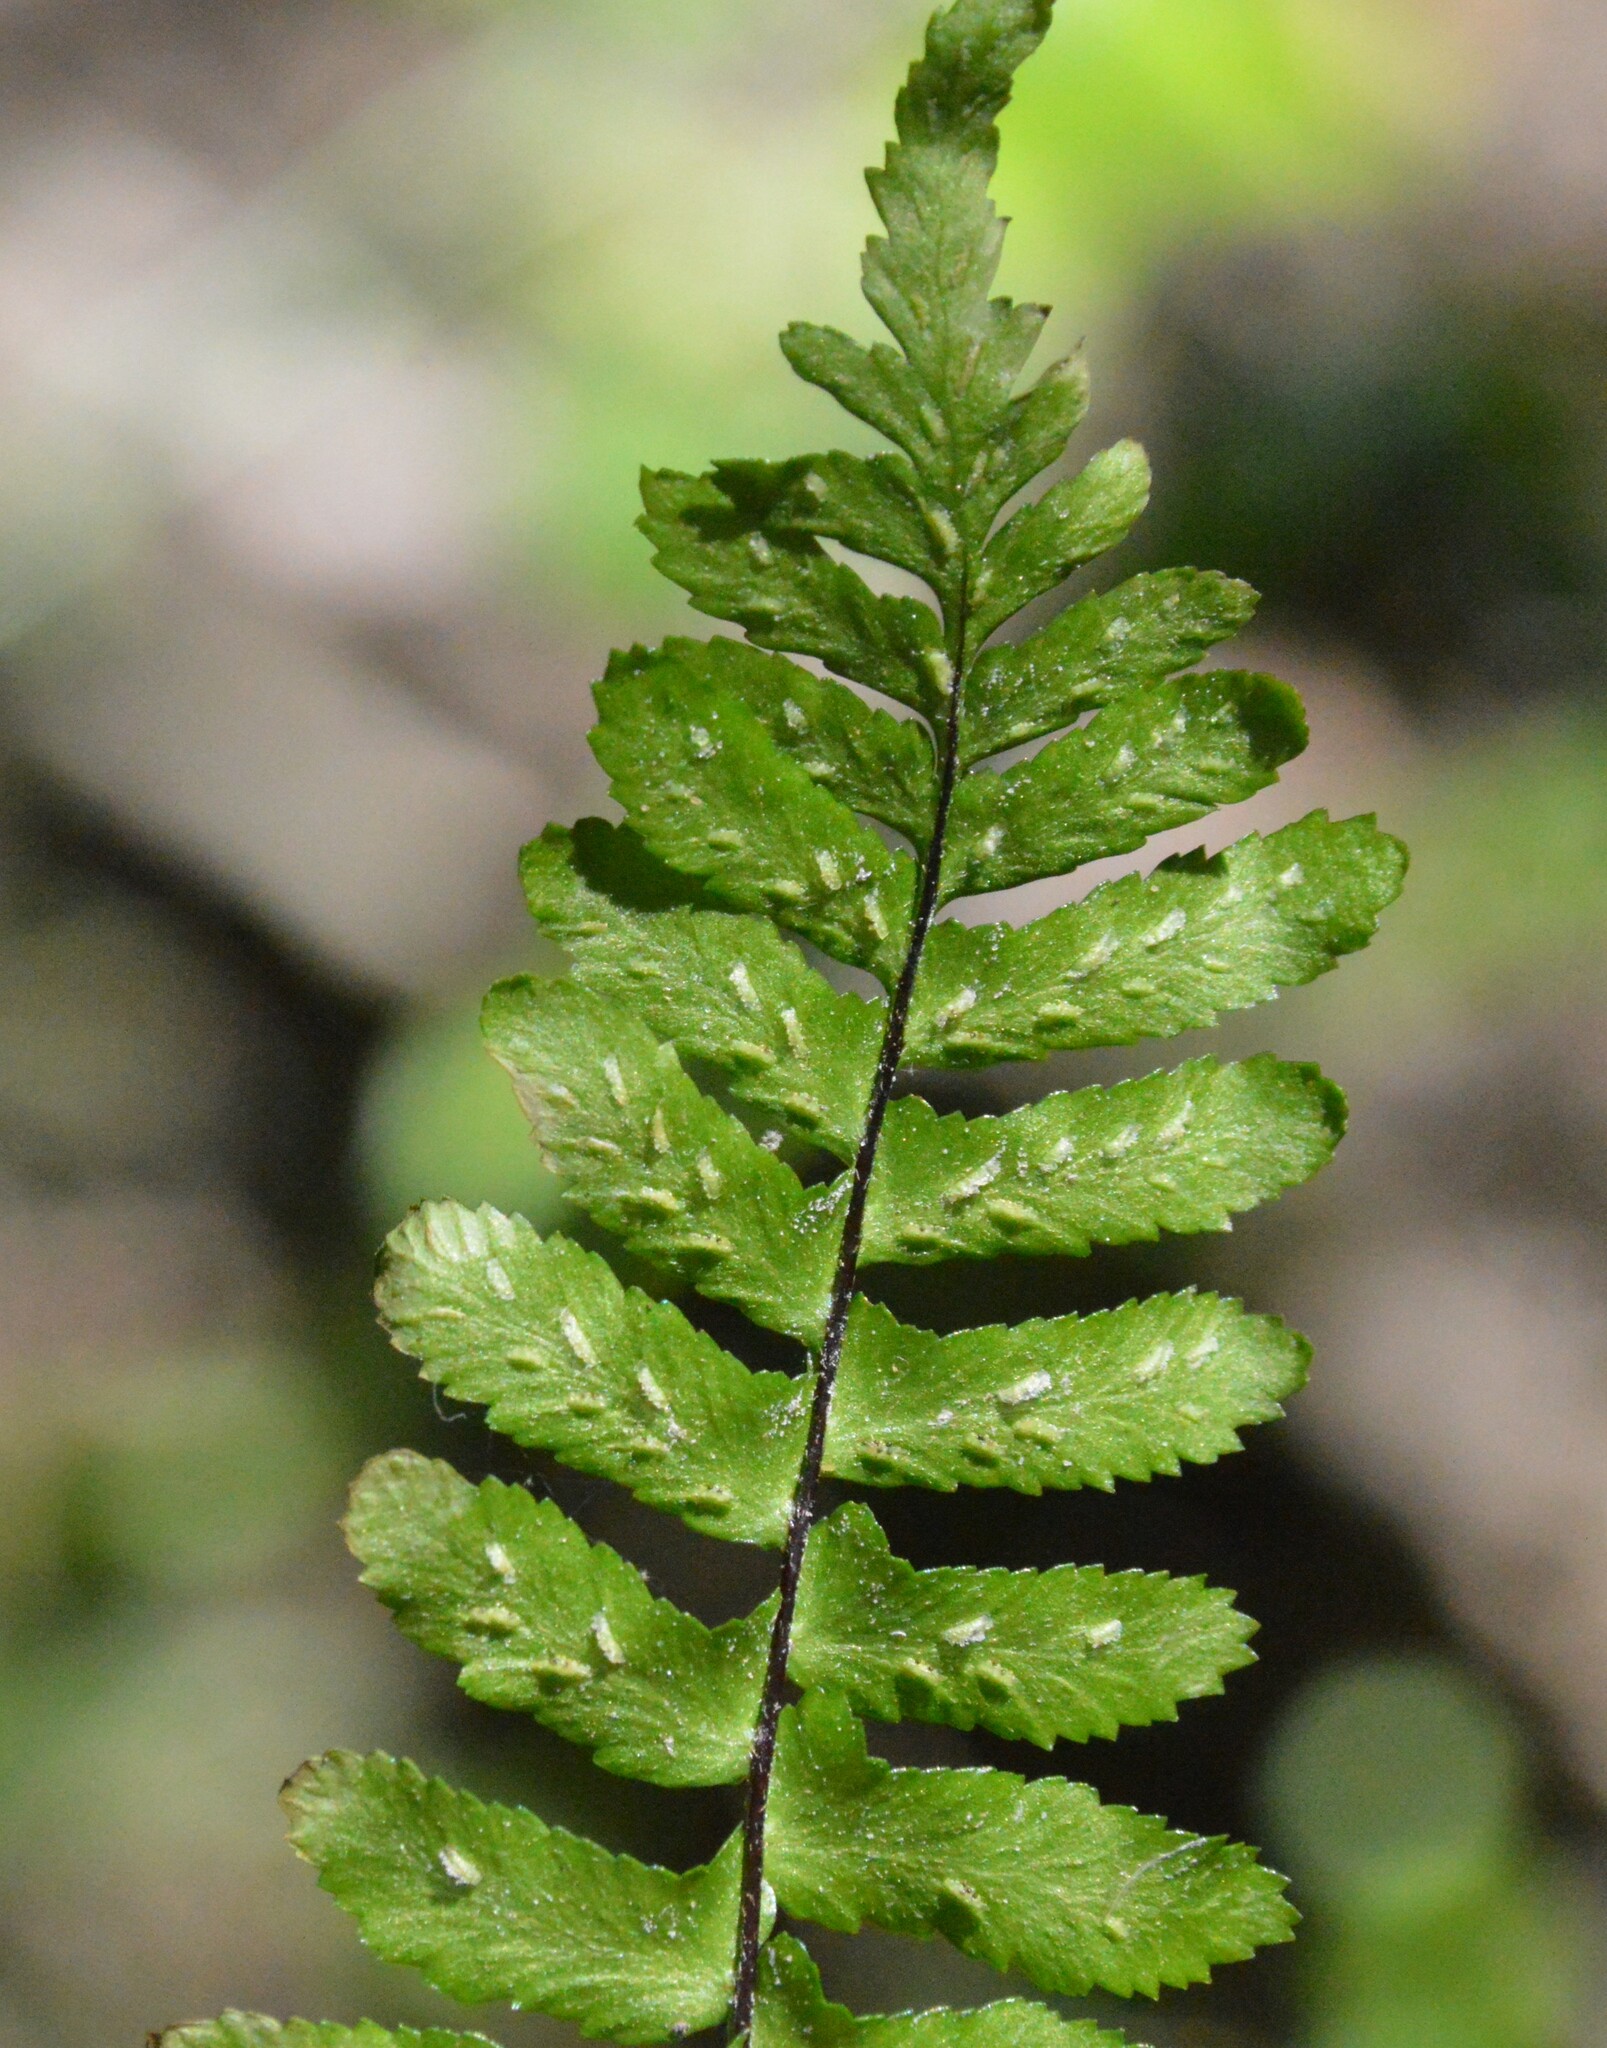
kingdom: Plantae
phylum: Tracheophyta
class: Polypodiopsida
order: Polypodiales
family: Aspleniaceae
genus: Asplenium
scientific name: Asplenium platyneuron
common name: Ebony spleenwort
